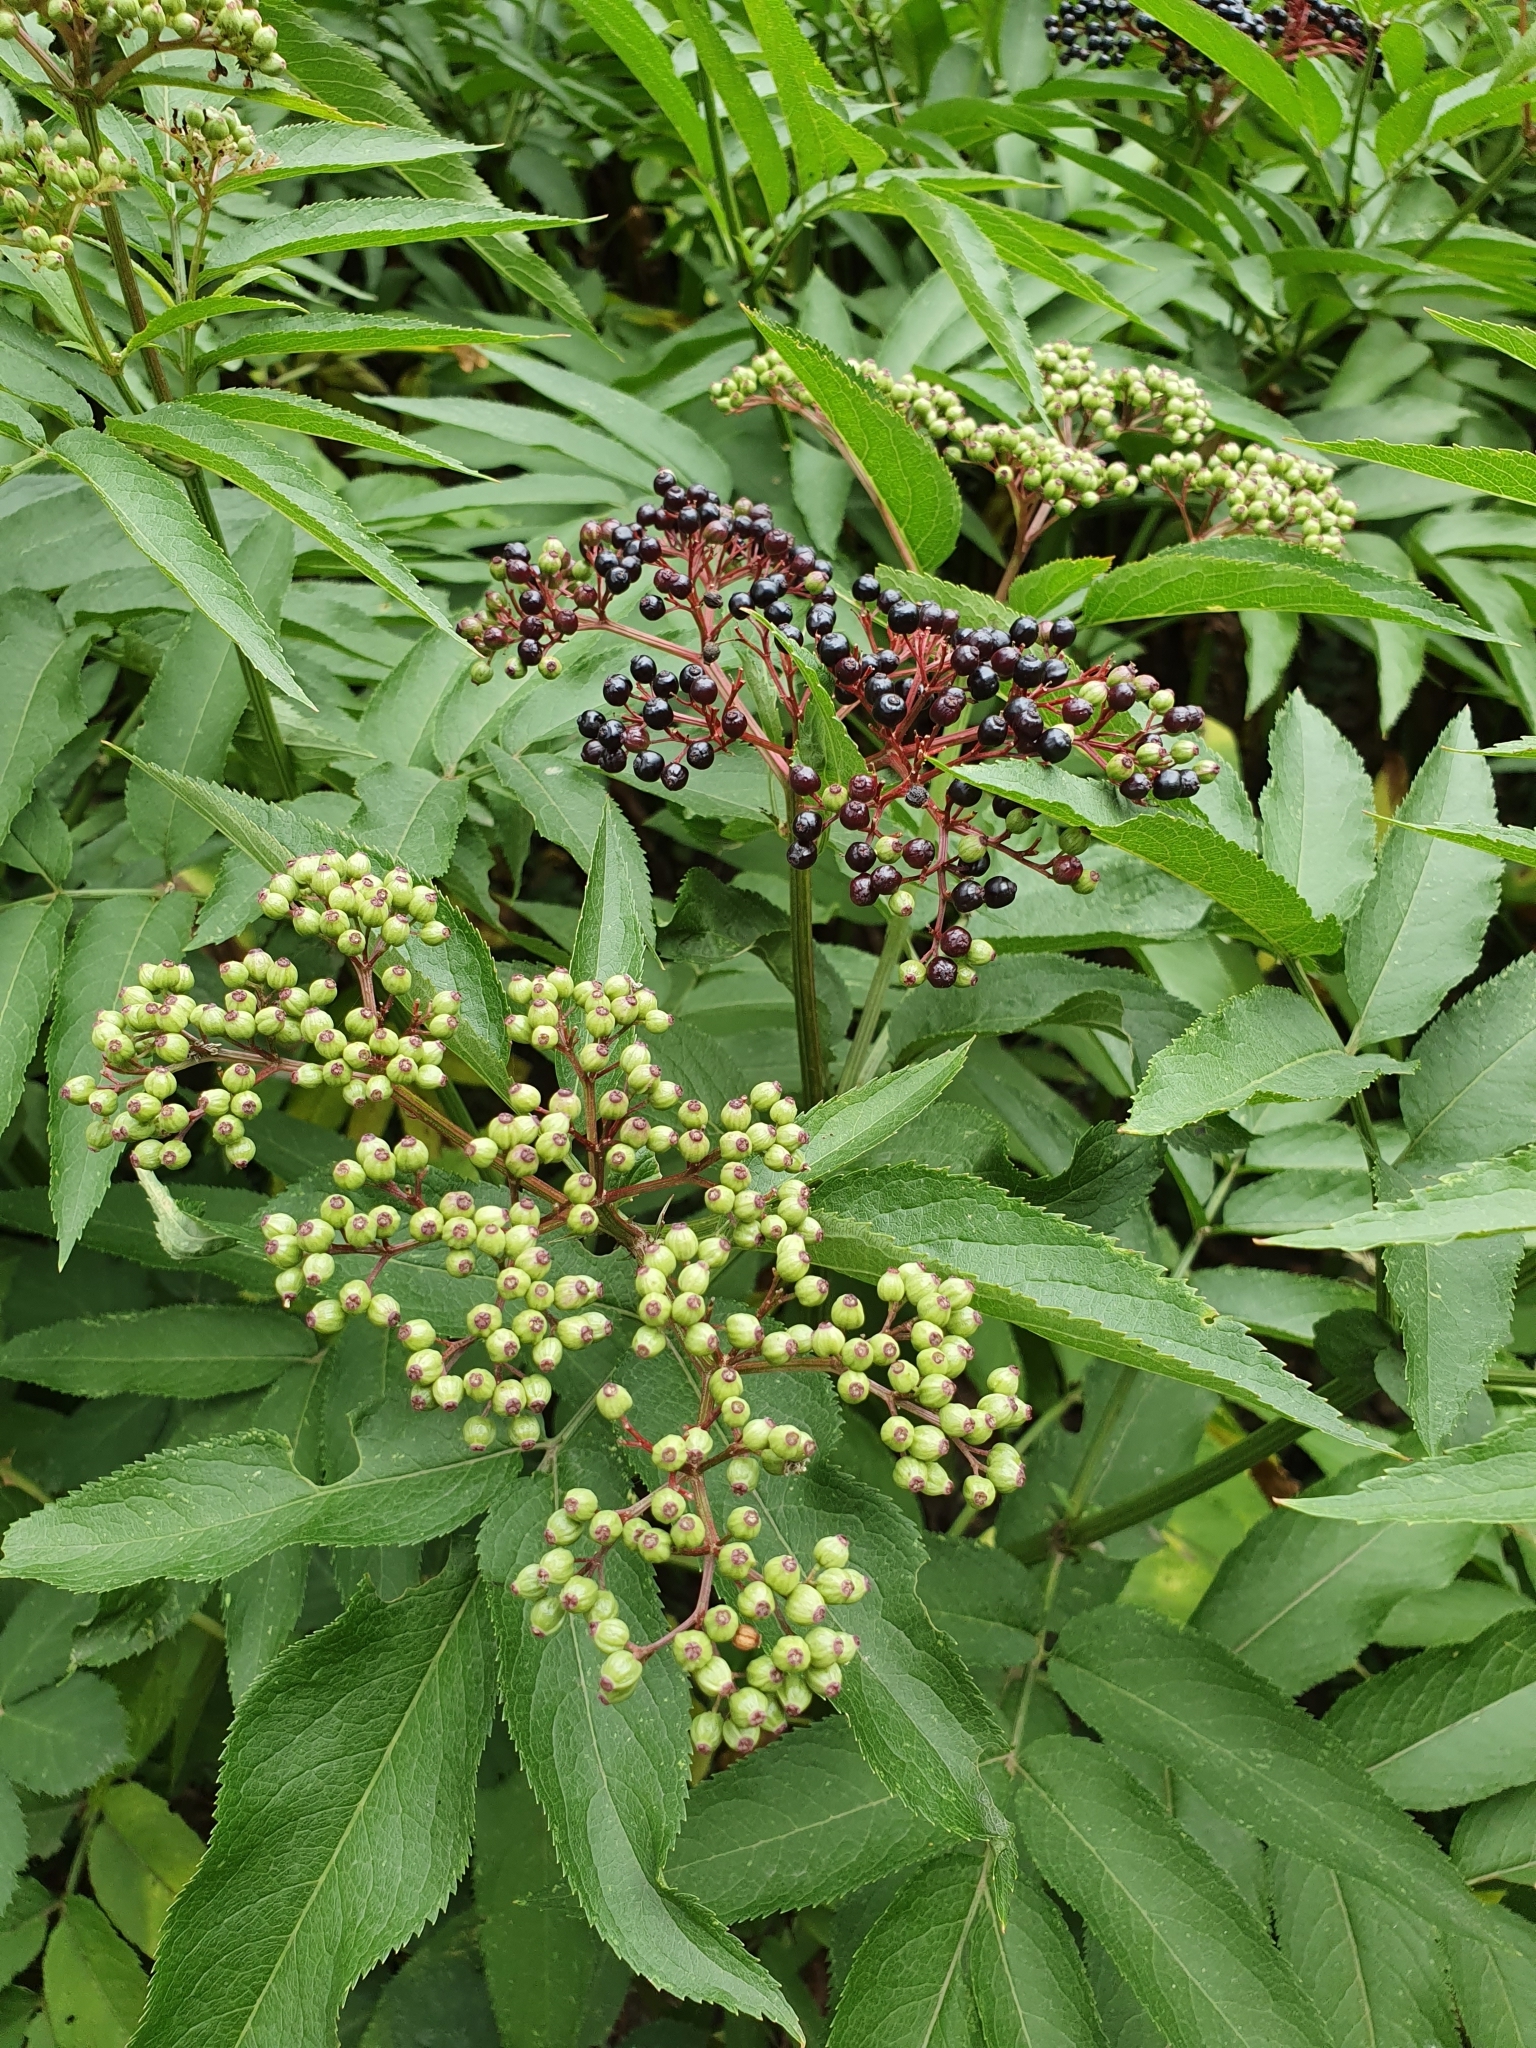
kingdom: Plantae
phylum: Tracheophyta
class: Magnoliopsida
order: Dipsacales
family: Viburnaceae
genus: Sambucus
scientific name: Sambucus ebulus
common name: Dwarf elder
